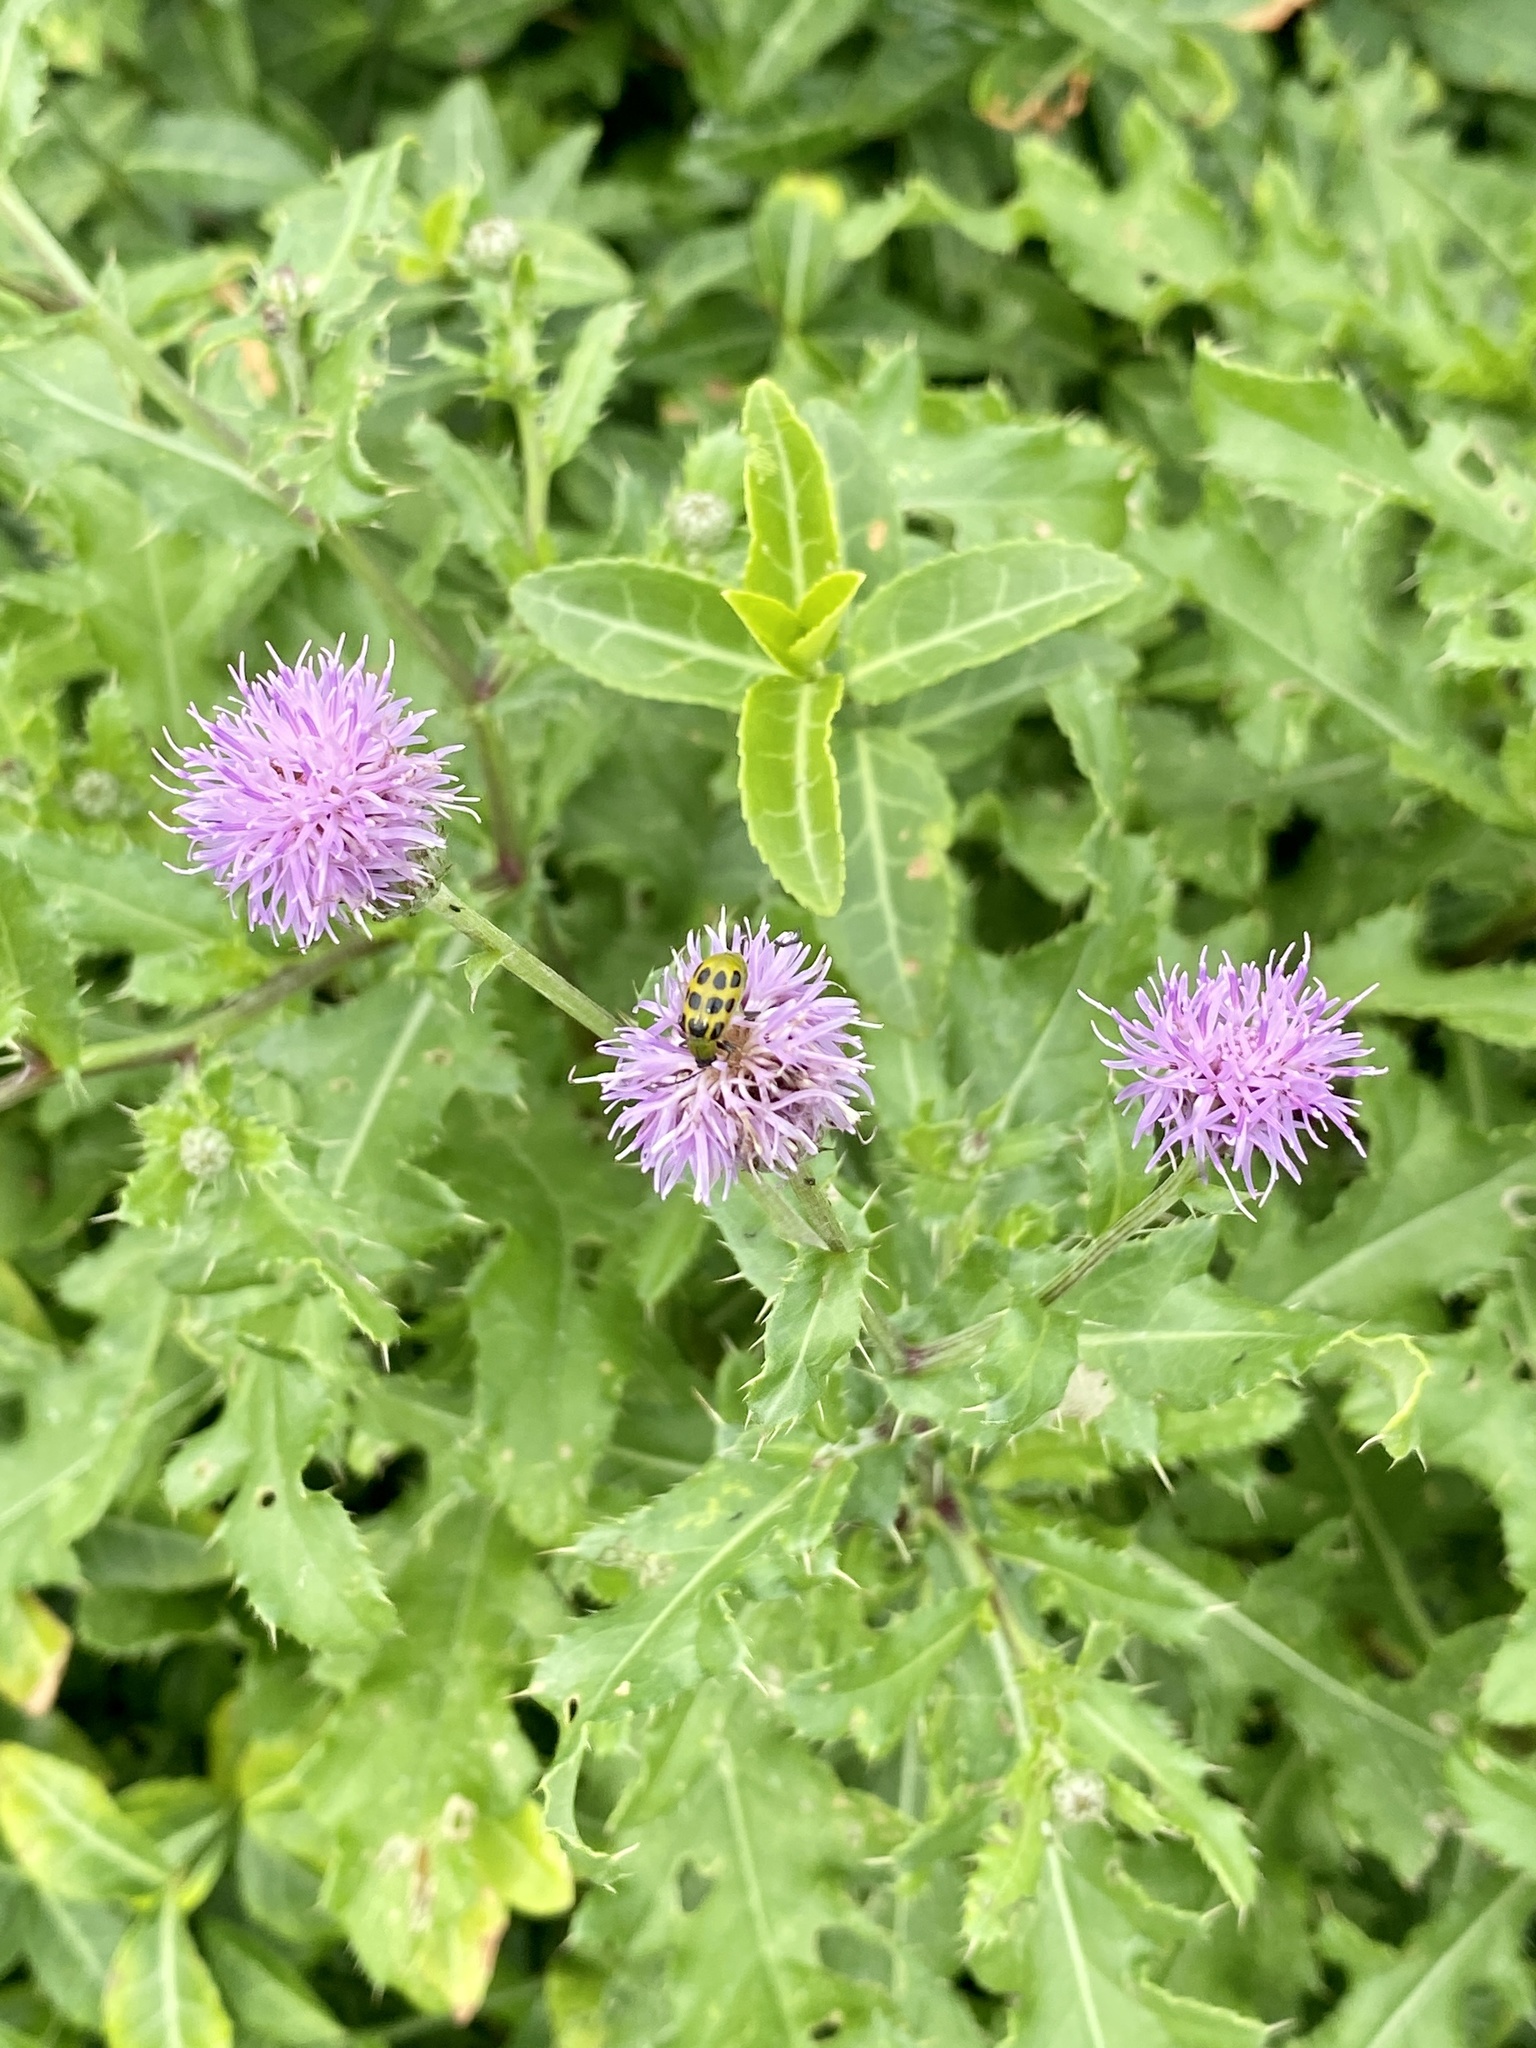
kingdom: Plantae
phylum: Tracheophyta
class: Magnoliopsida
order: Asterales
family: Asteraceae
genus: Cirsium
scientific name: Cirsium arvense
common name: Creeping thistle
